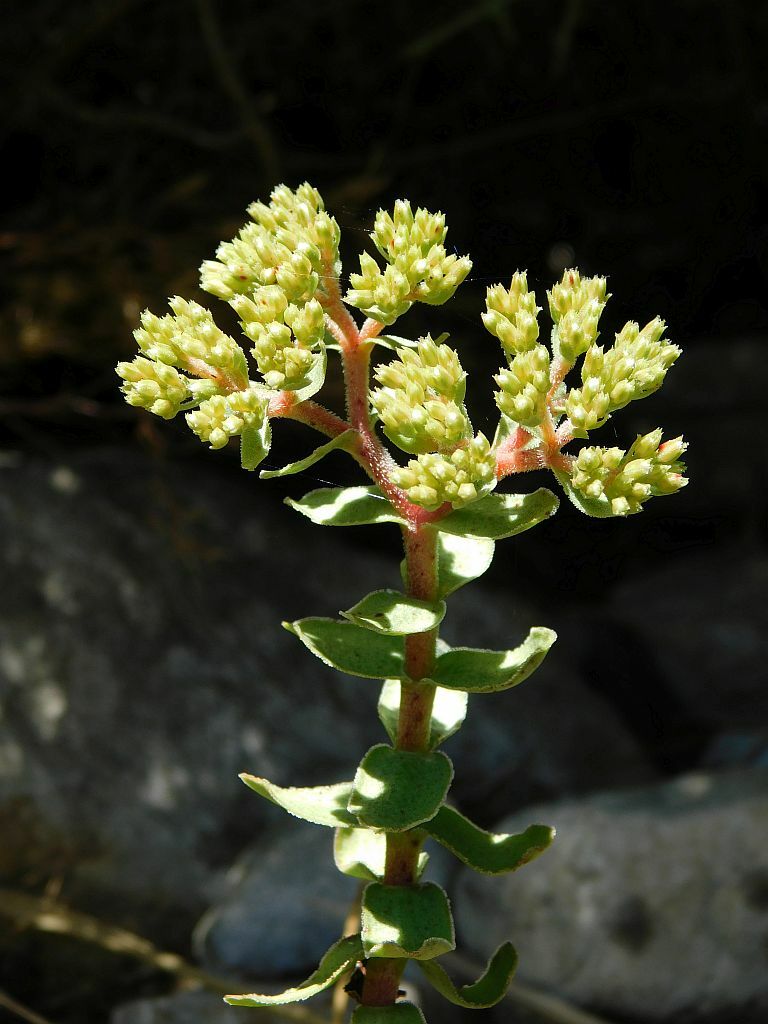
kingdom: Plantae
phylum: Tracheophyta
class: Magnoliopsida
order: Saxifragales
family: Crassulaceae
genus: Crassula
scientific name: Crassula undulata
